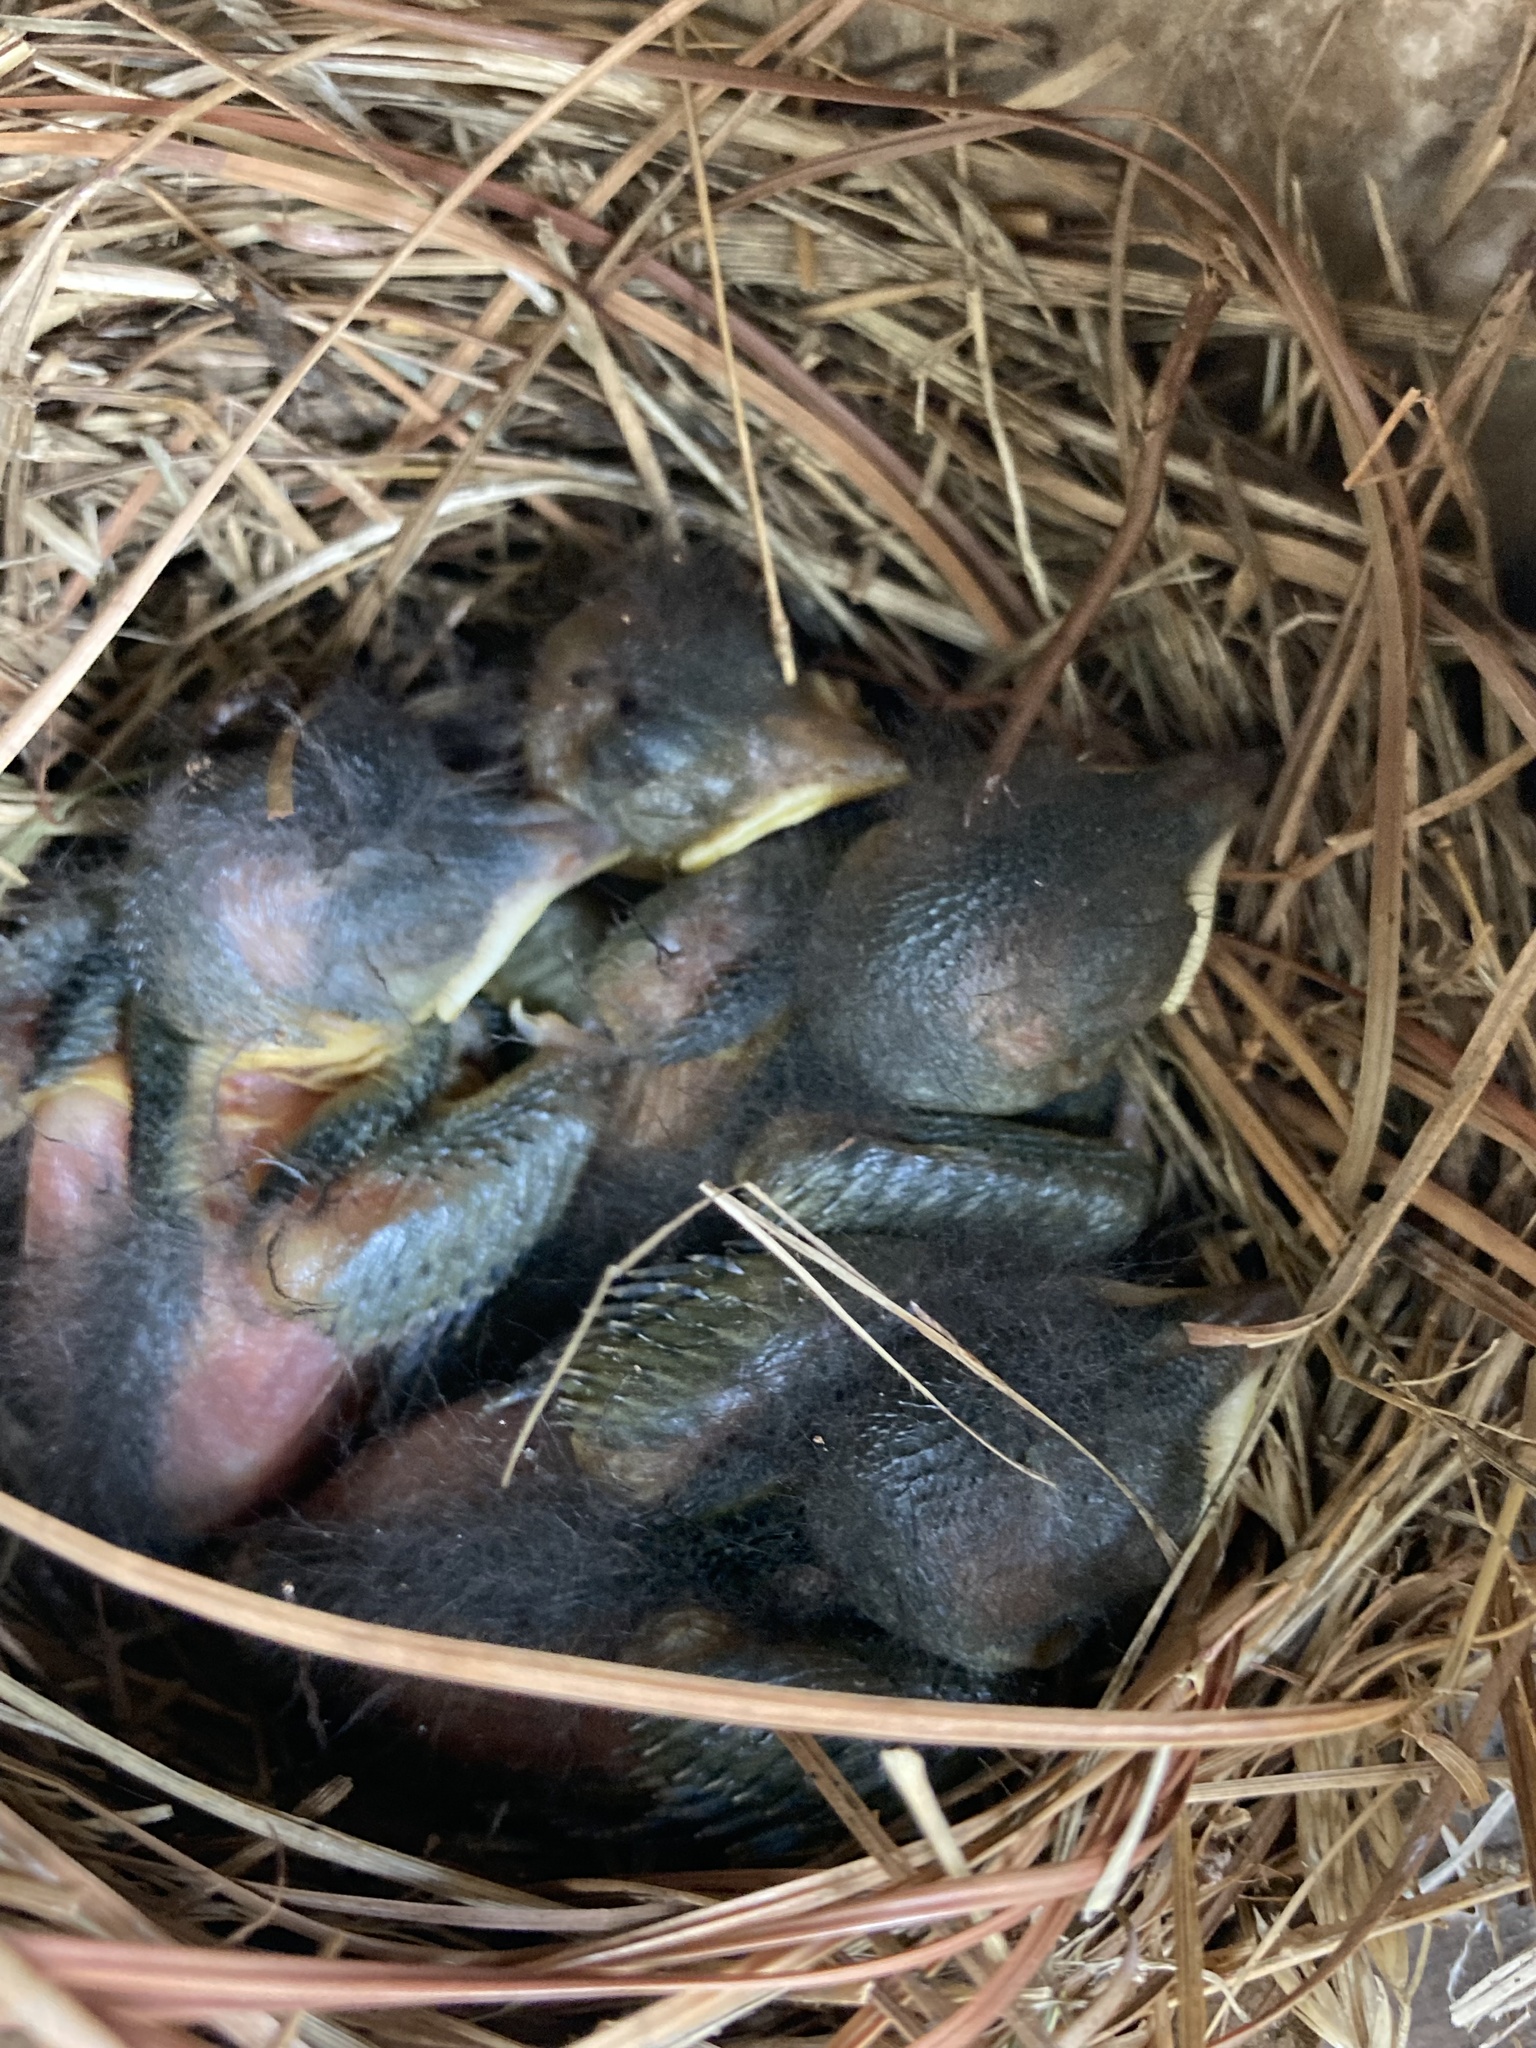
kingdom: Animalia
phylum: Chordata
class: Aves
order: Passeriformes
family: Turdidae
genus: Sialia
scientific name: Sialia sialis
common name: Eastern bluebird
